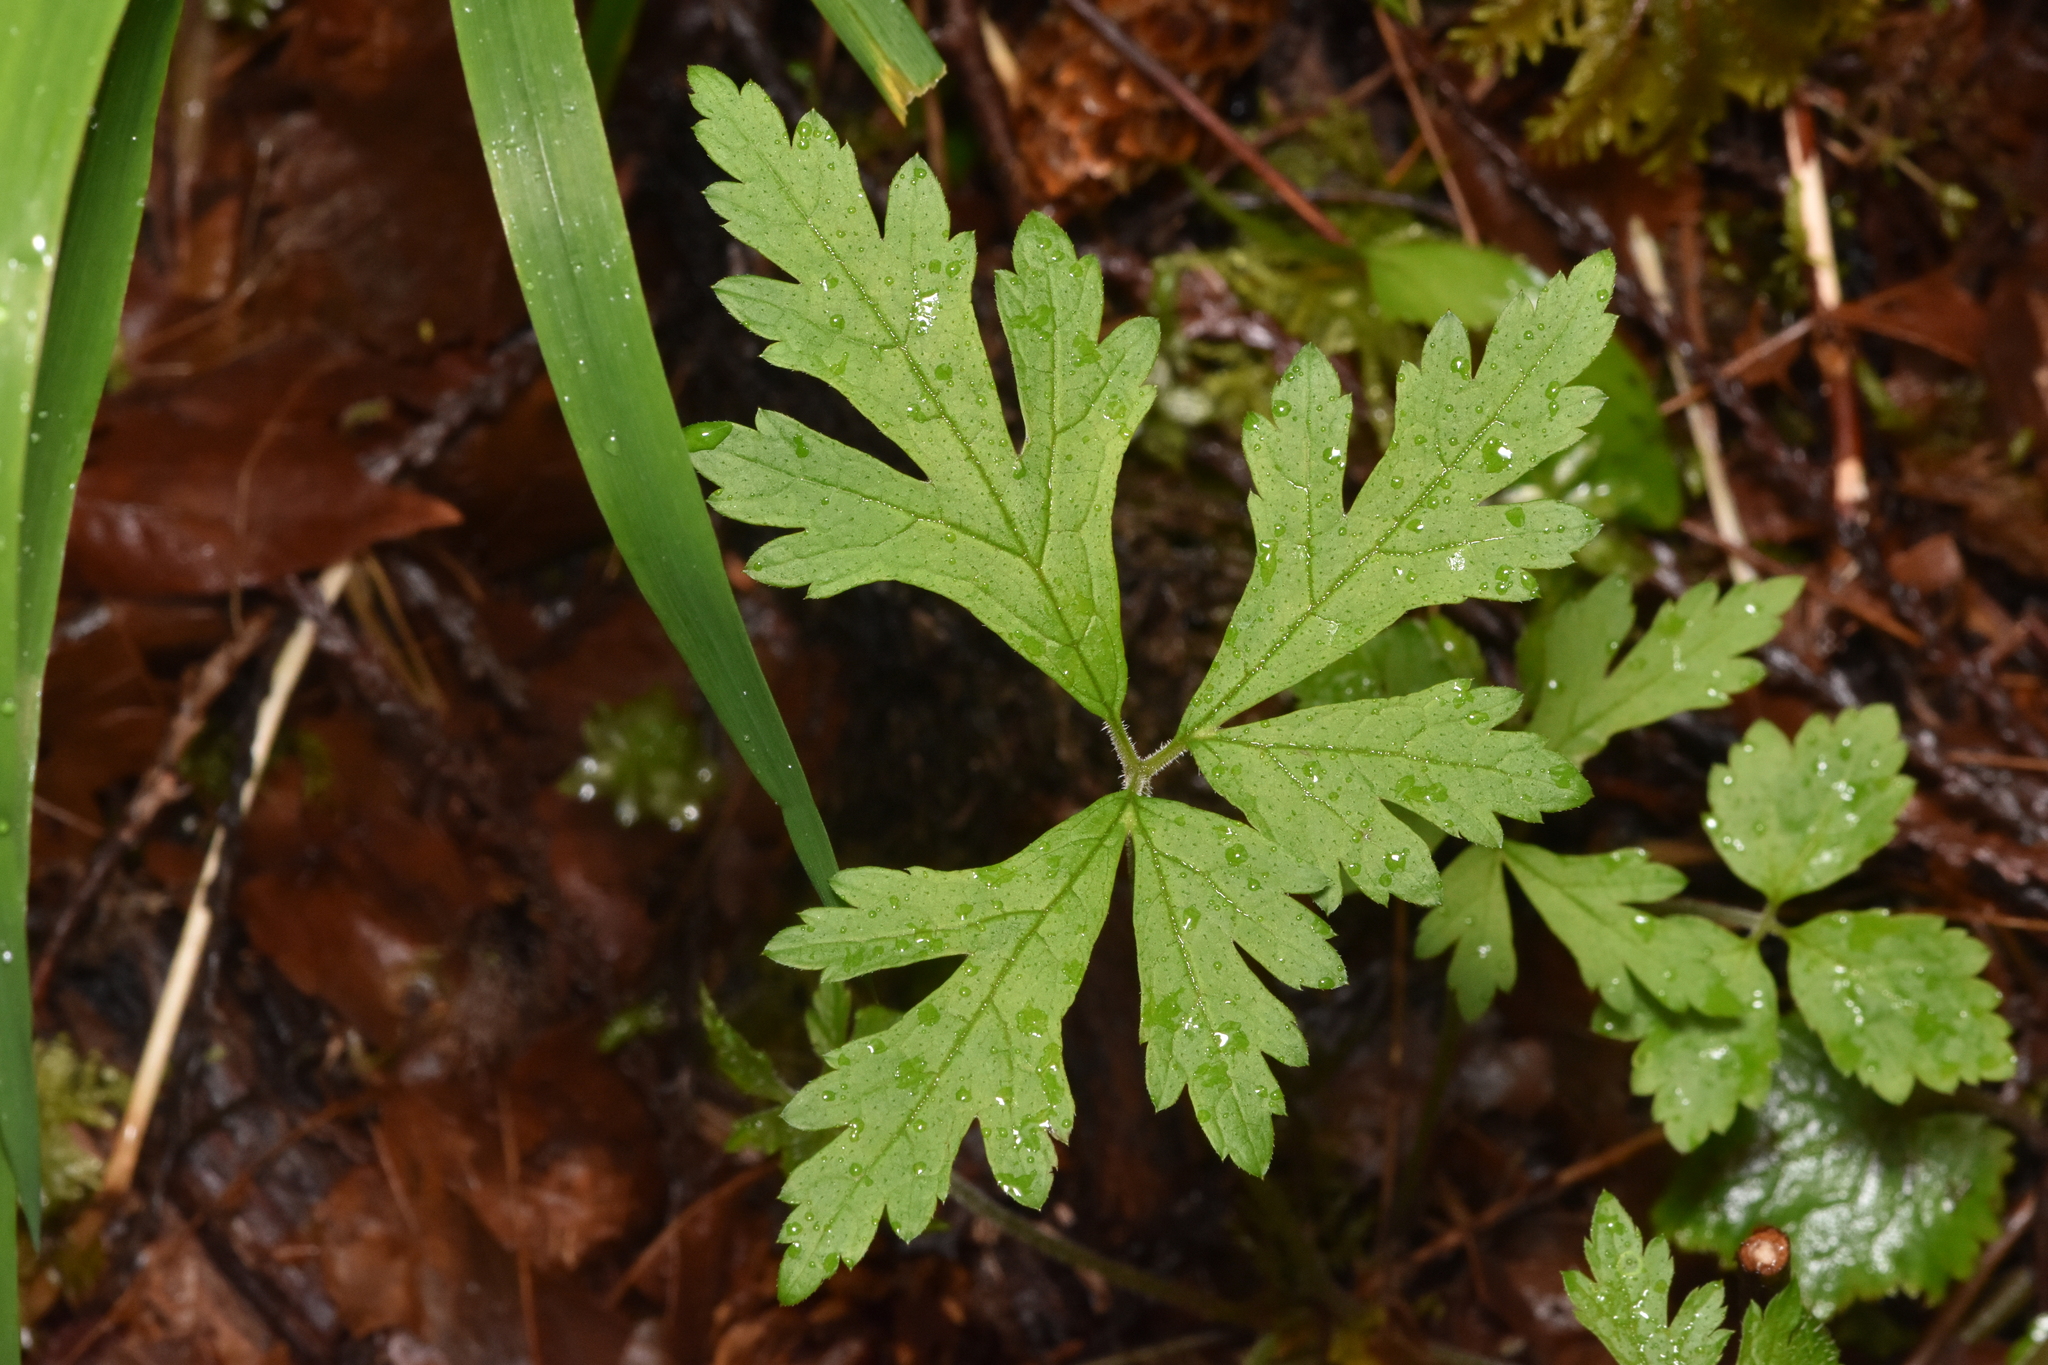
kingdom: Plantae
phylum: Tracheophyta
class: Magnoliopsida
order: Saxifragales
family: Saxifragaceae
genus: Tiarella
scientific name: Tiarella trifoliata
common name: Sugar-scoop
